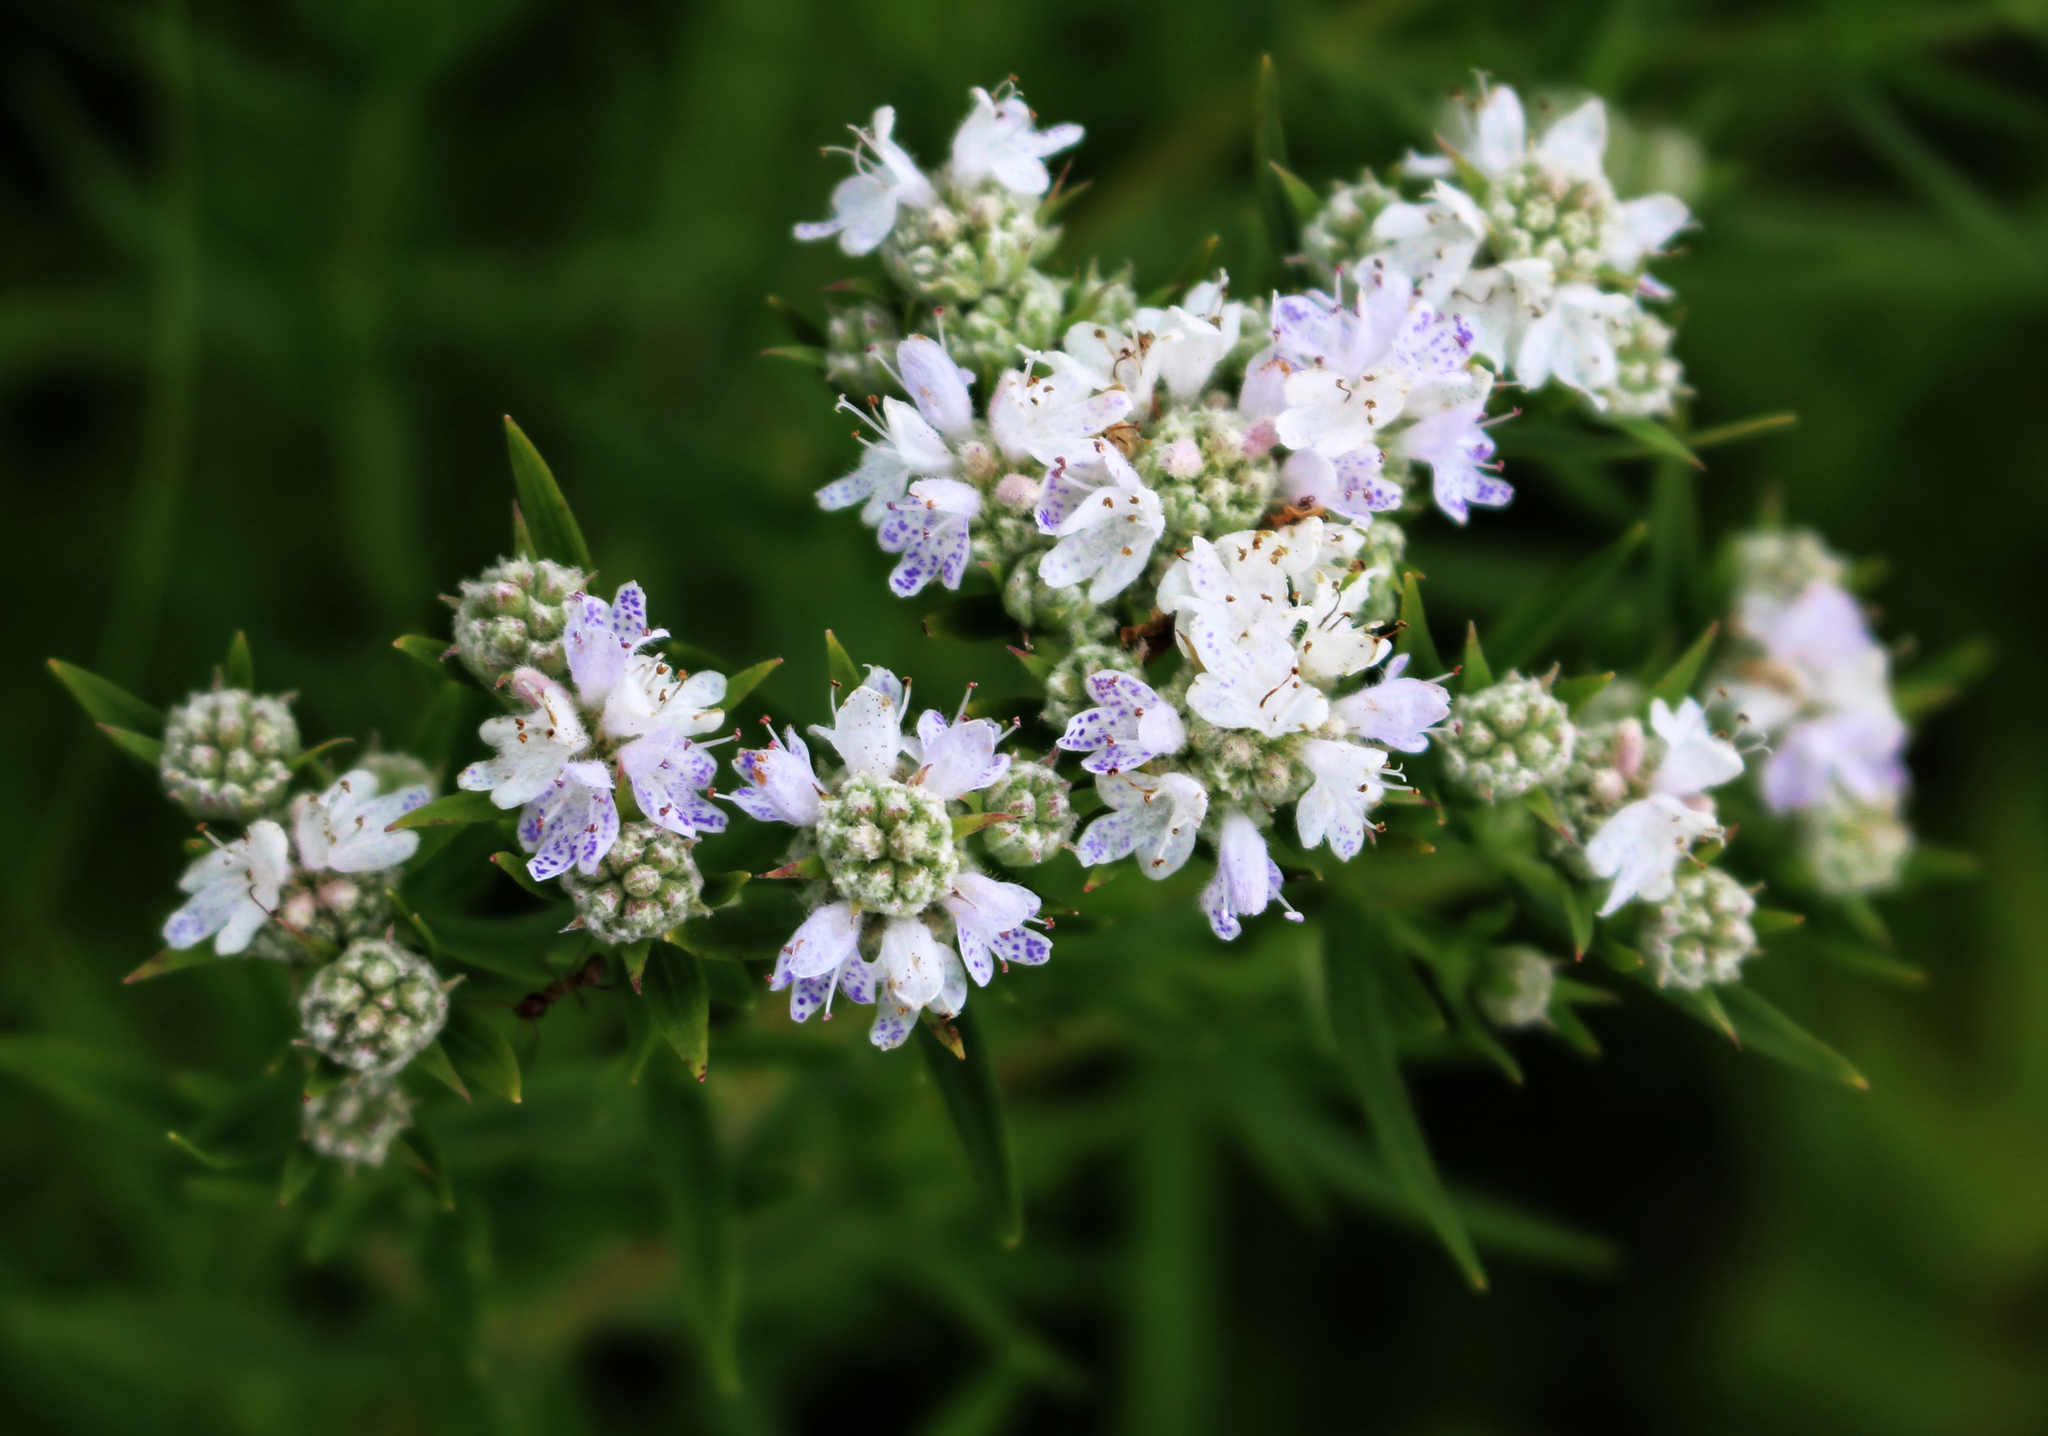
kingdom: Plantae
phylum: Tracheophyta
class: Magnoliopsida
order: Lamiales
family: Lamiaceae
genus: Pycnanthemum
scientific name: Pycnanthemum virginianum
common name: Virginia mountain-mint
